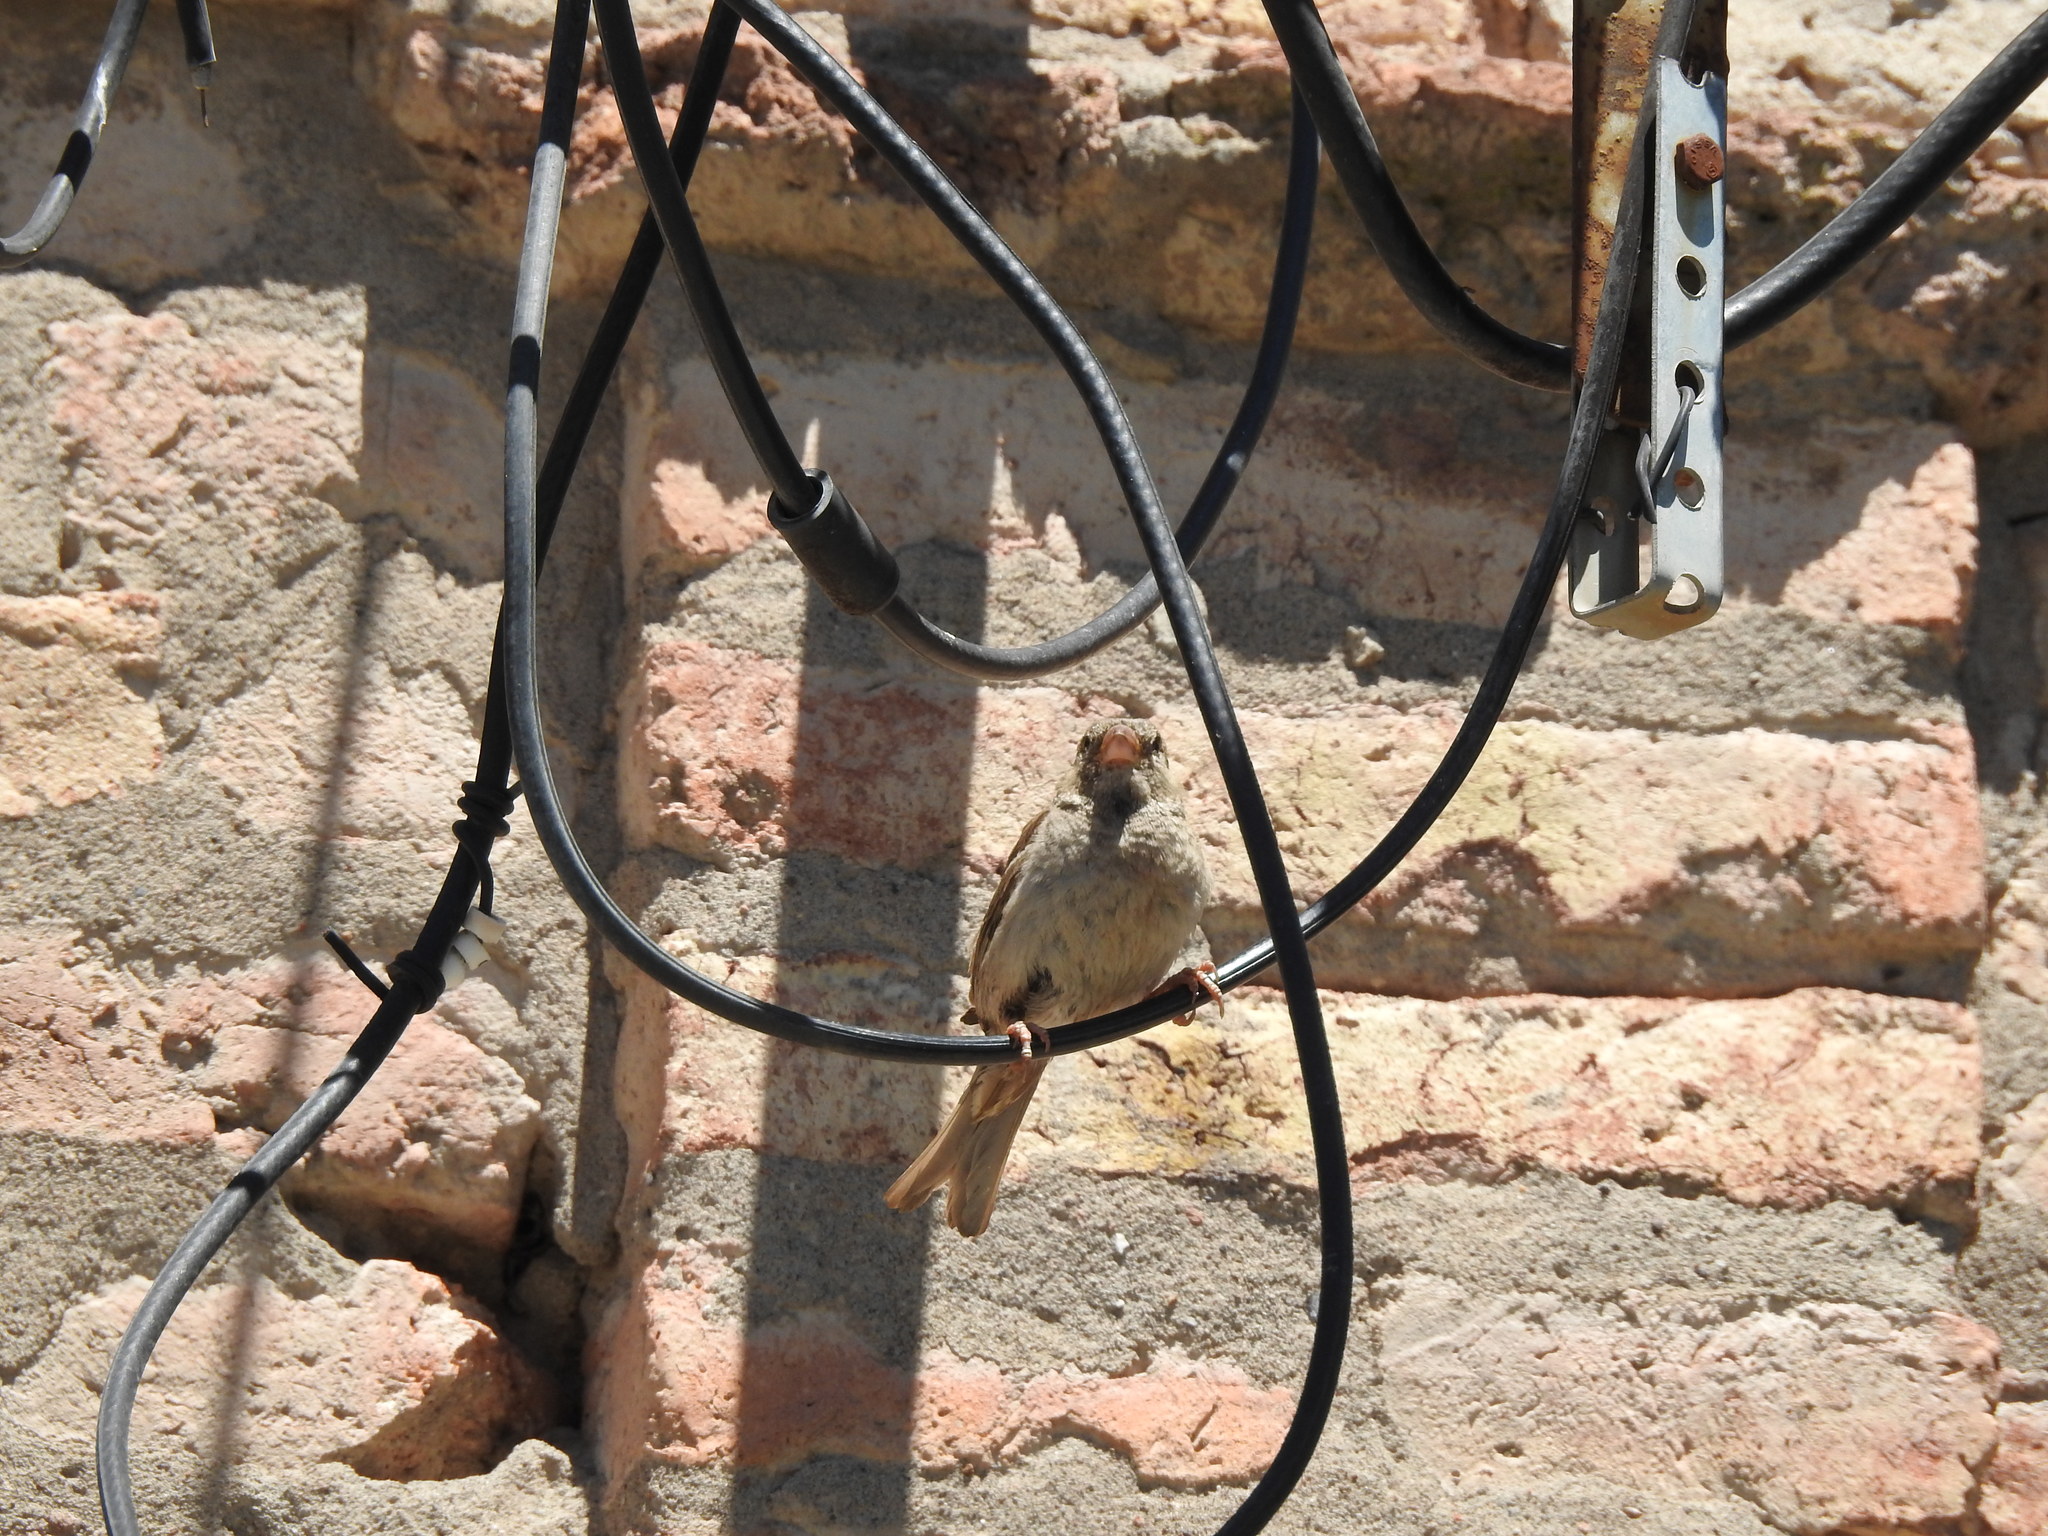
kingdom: Animalia
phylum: Chordata
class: Aves
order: Passeriformes
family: Passeridae
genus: Passer
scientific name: Passer domesticus
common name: House sparrow
